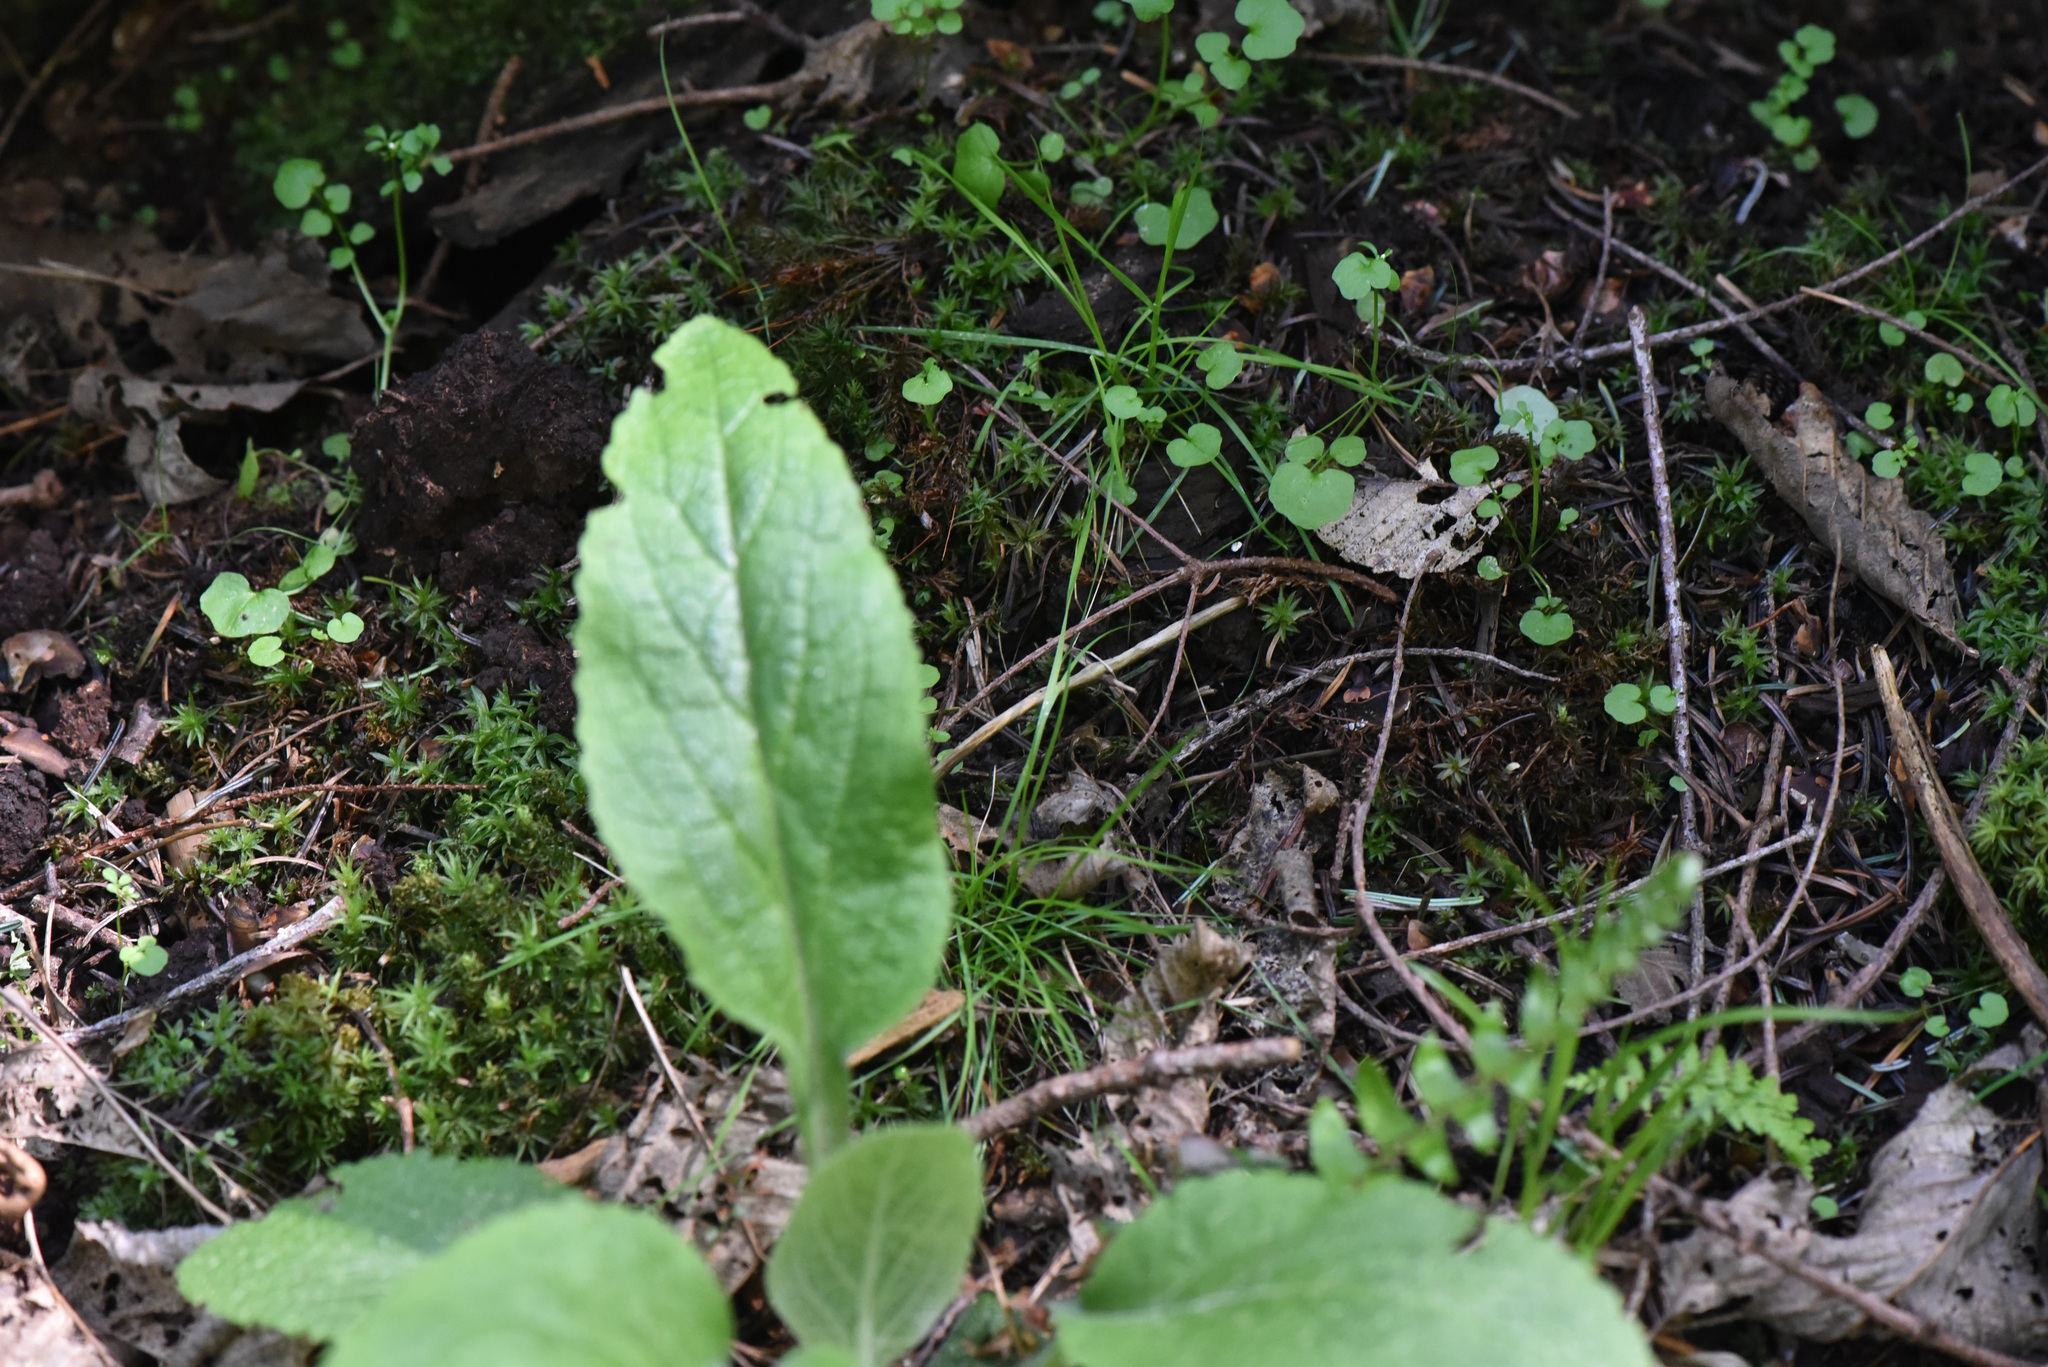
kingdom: Plantae
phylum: Tracheophyta
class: Magnoliopsida
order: Lamiales
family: Plantaginaceae
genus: Digitalis
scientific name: Digitalis purpurea
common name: Foxglove
